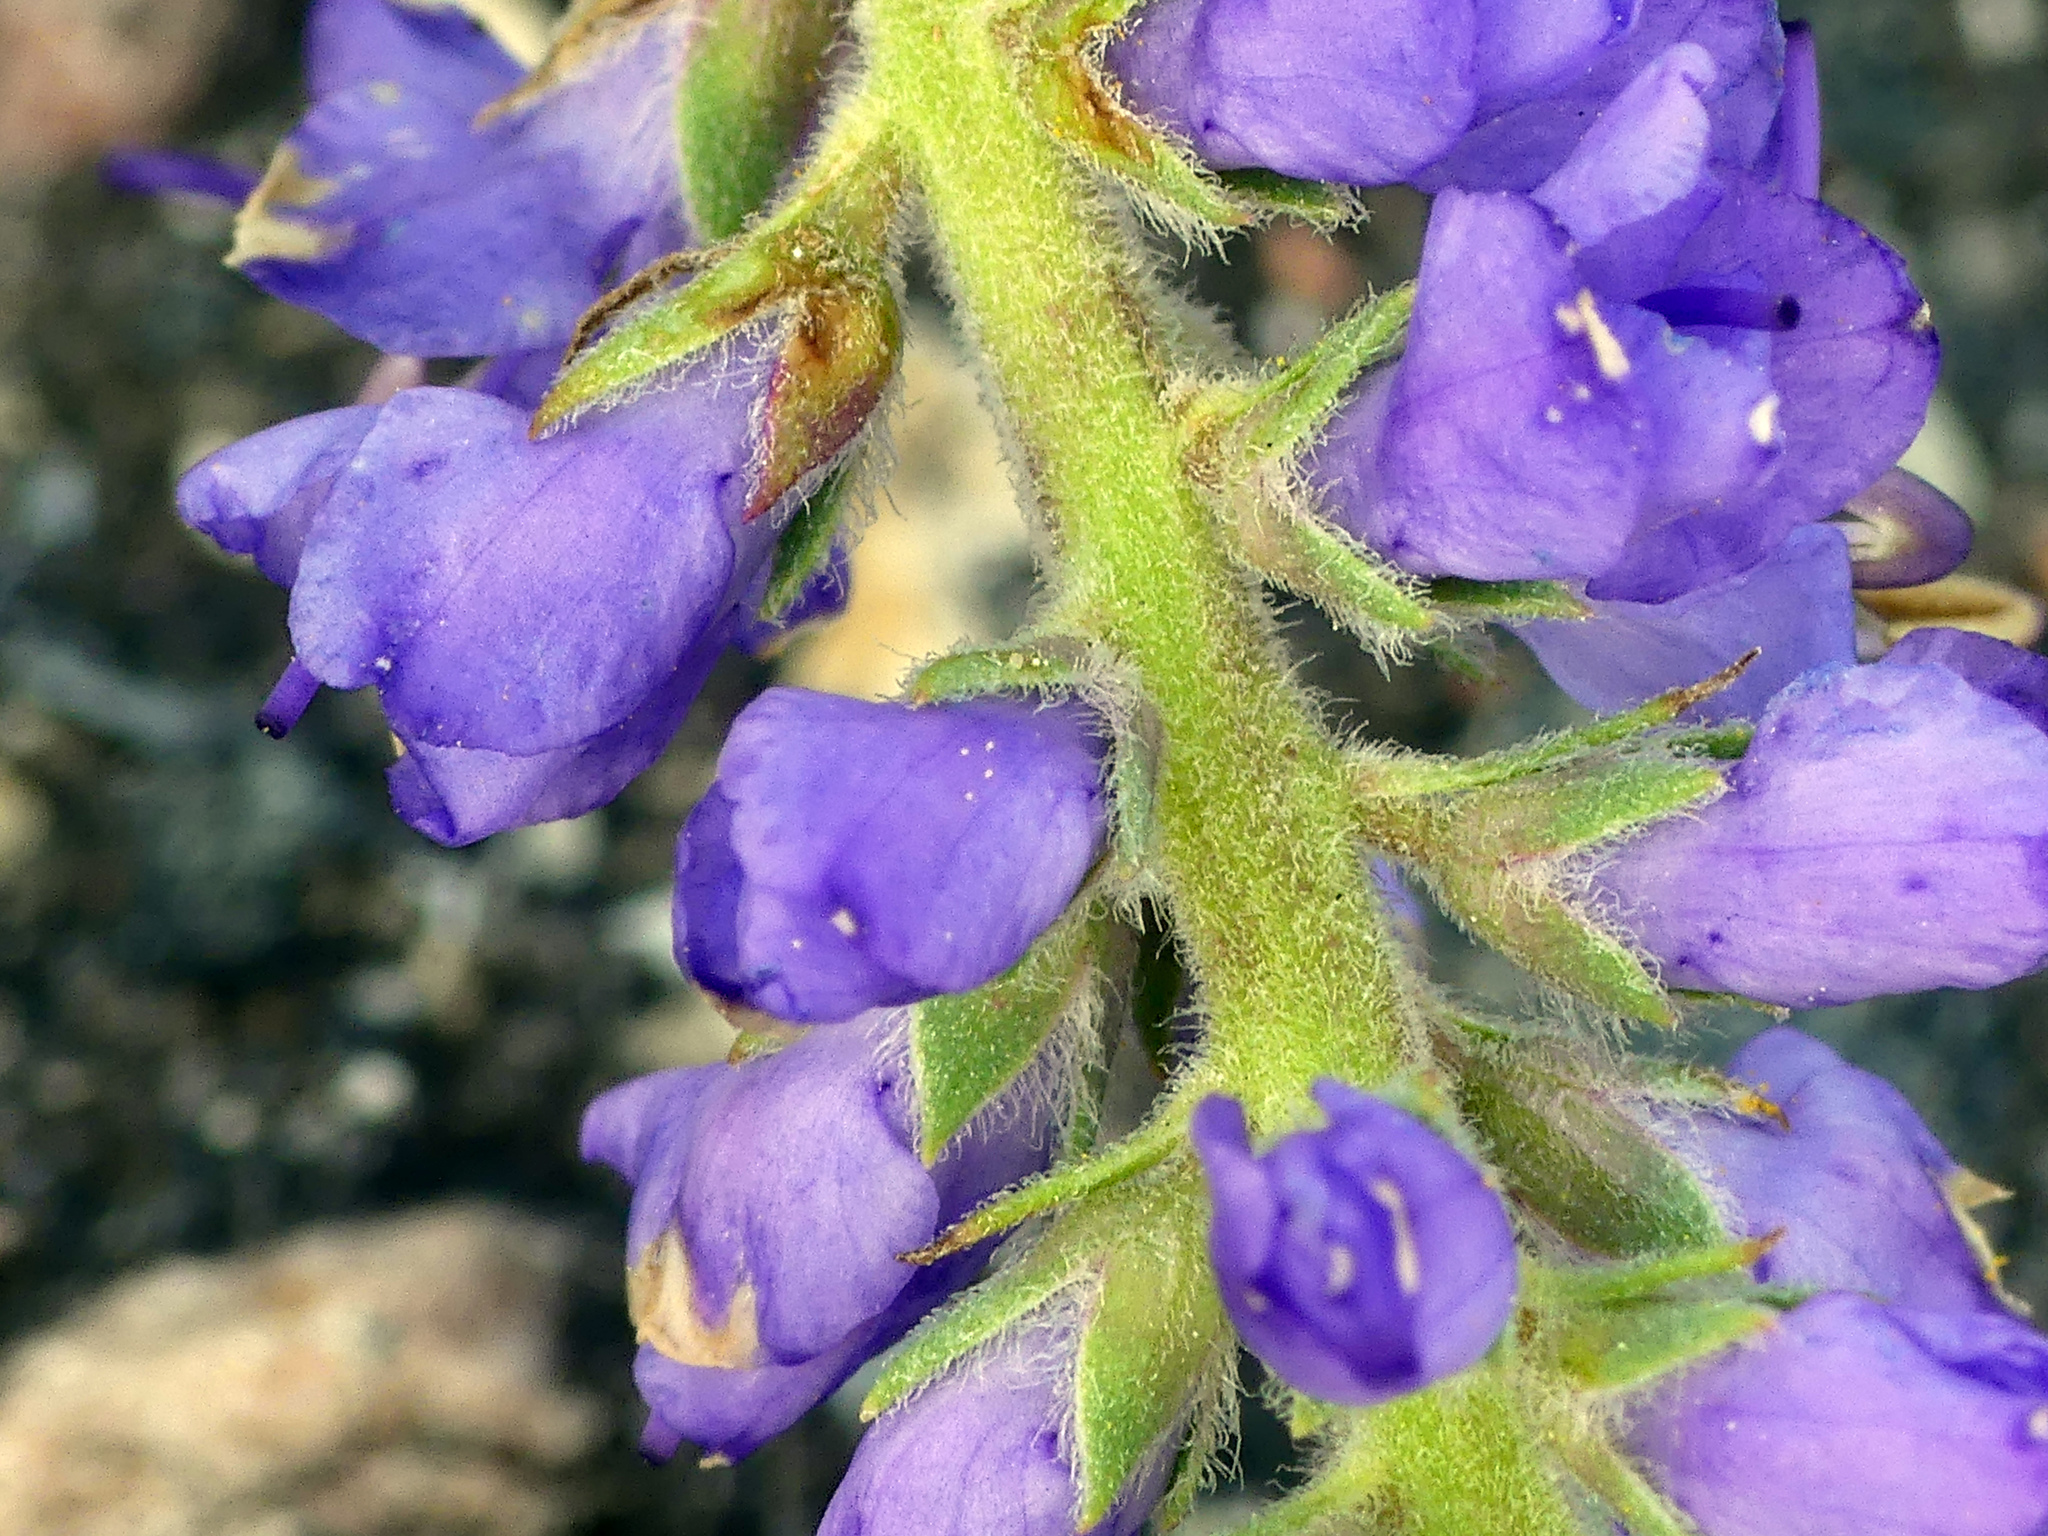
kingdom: Plantae
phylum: Tracheophyta
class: Magnoliopsida
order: Lamiales
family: Plantaginaceae
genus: Veronica
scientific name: Veronica spicata
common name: Spiked speedwell
